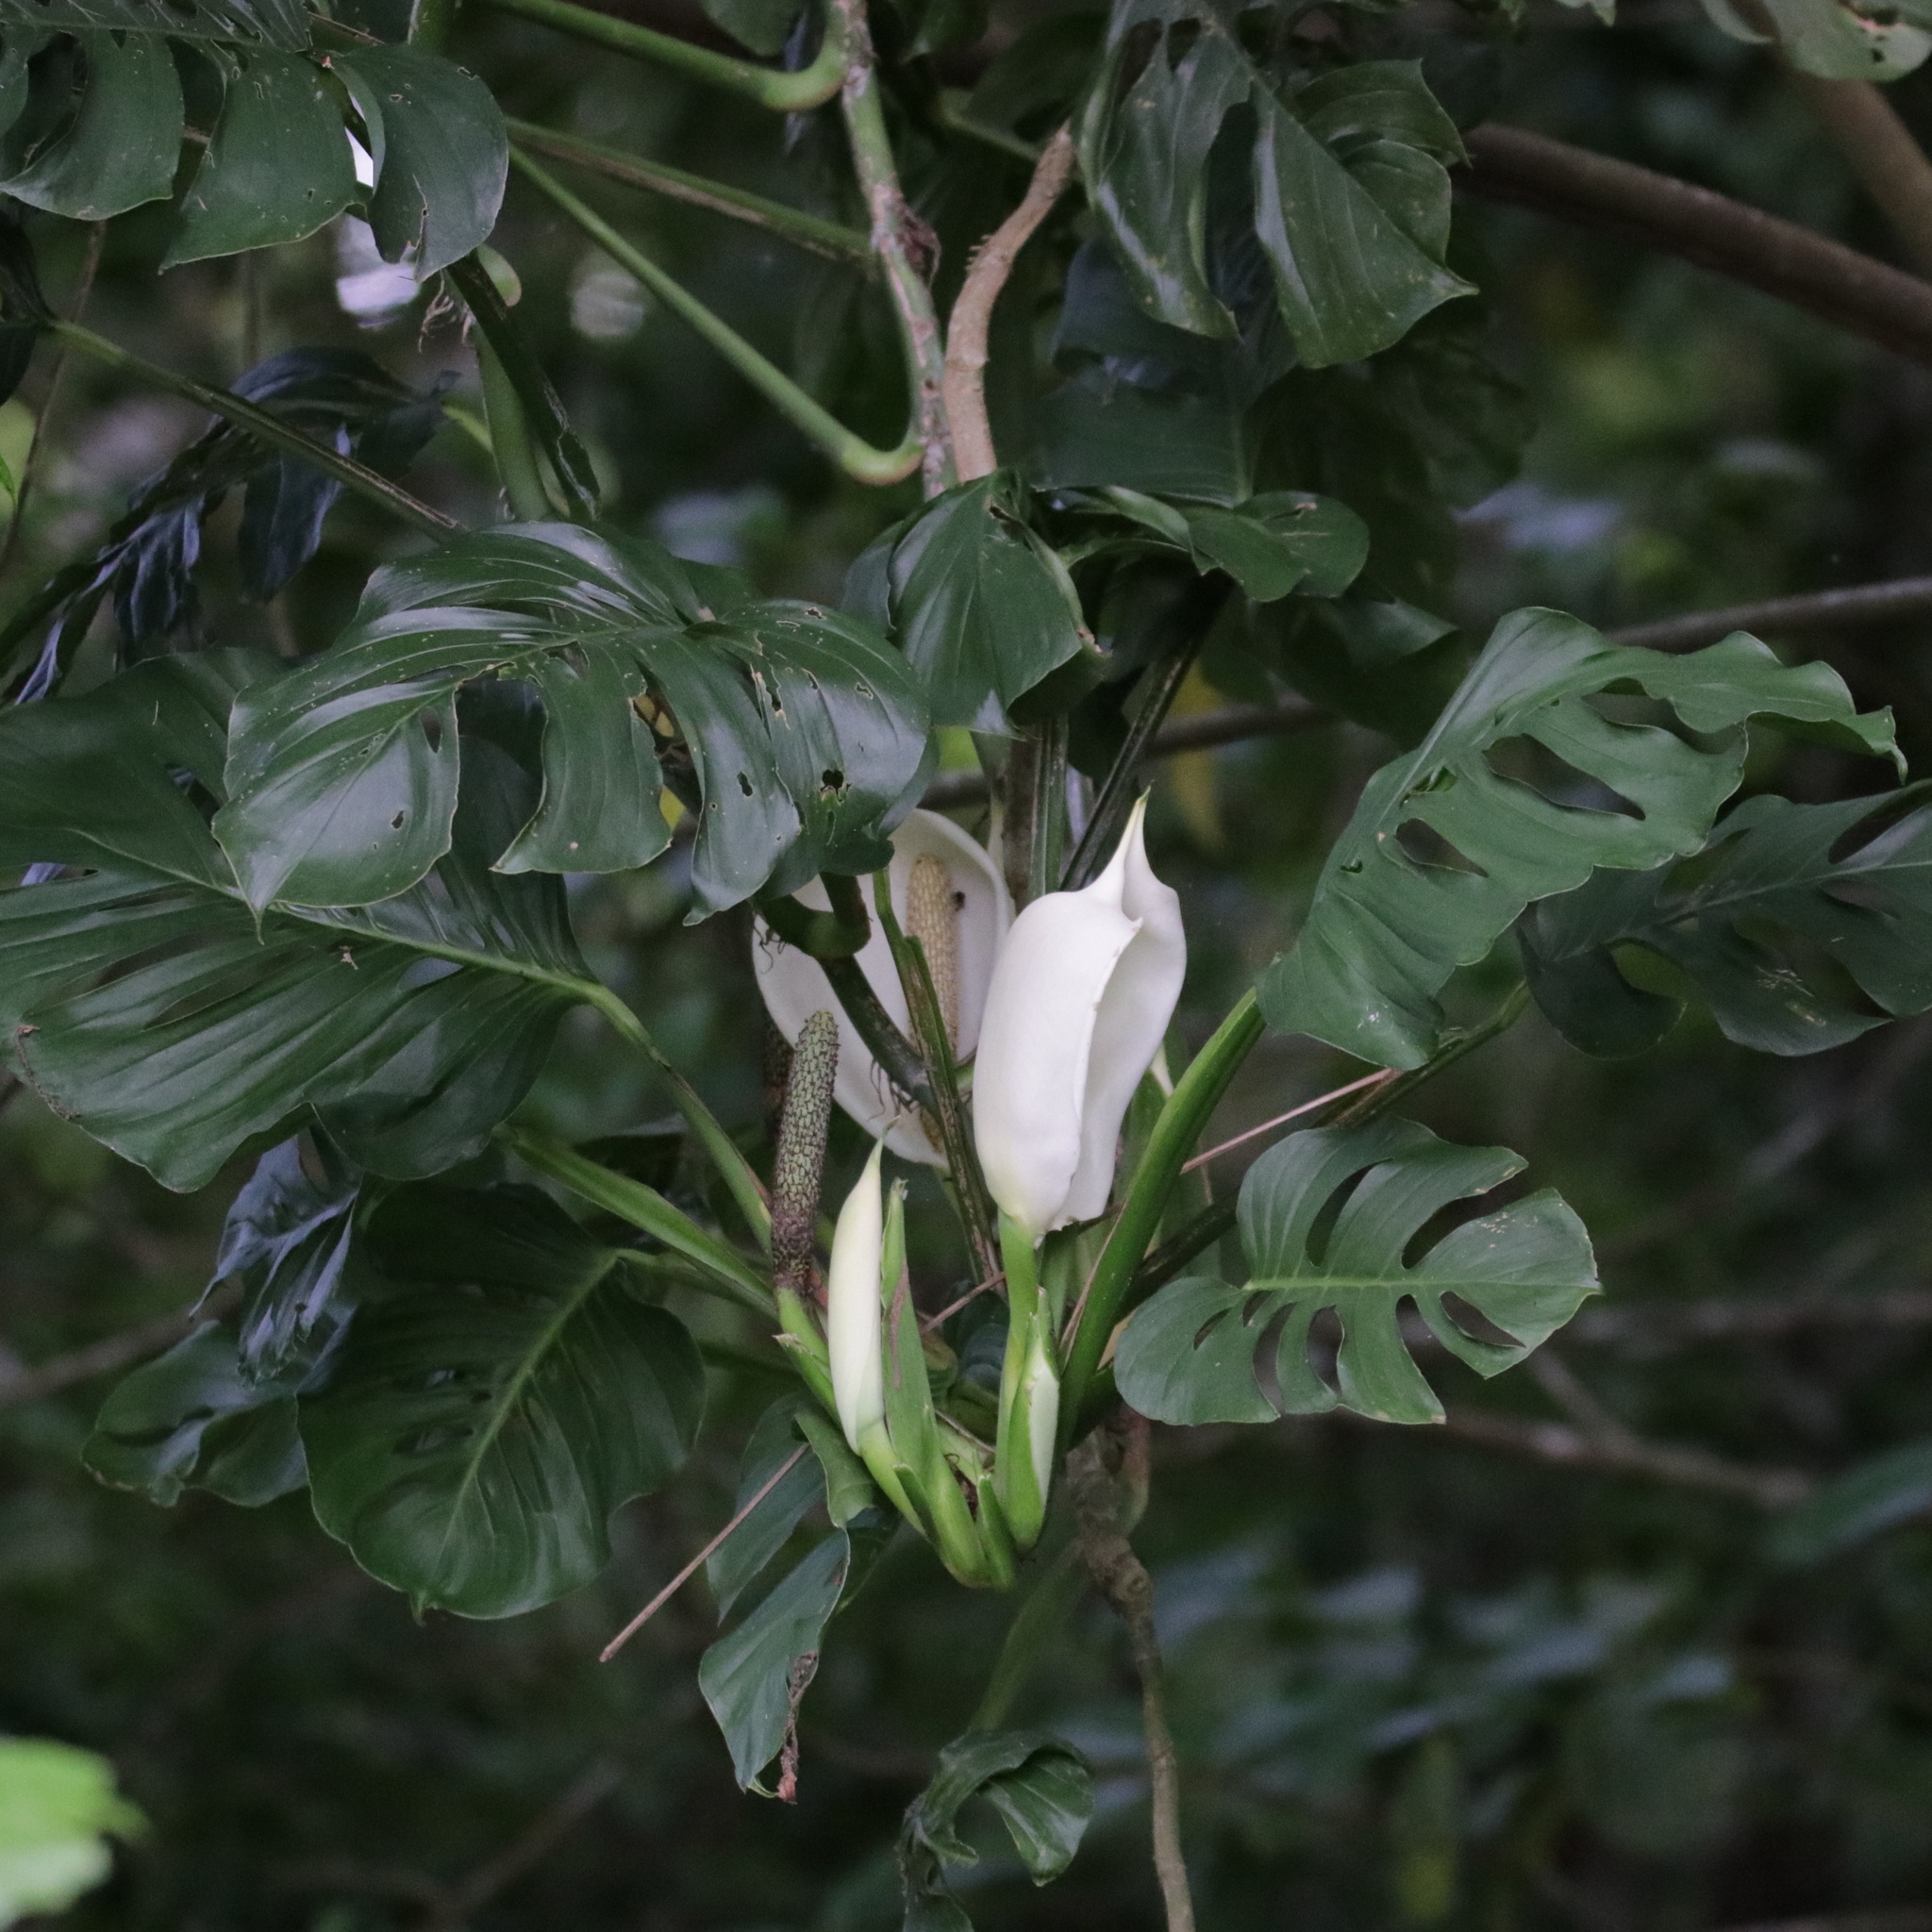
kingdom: Plantae
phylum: Tracheophyta
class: Liliopsida
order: Alismatales
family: Araceae
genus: Monstera
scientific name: Monstera adansonii
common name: Tarovine
